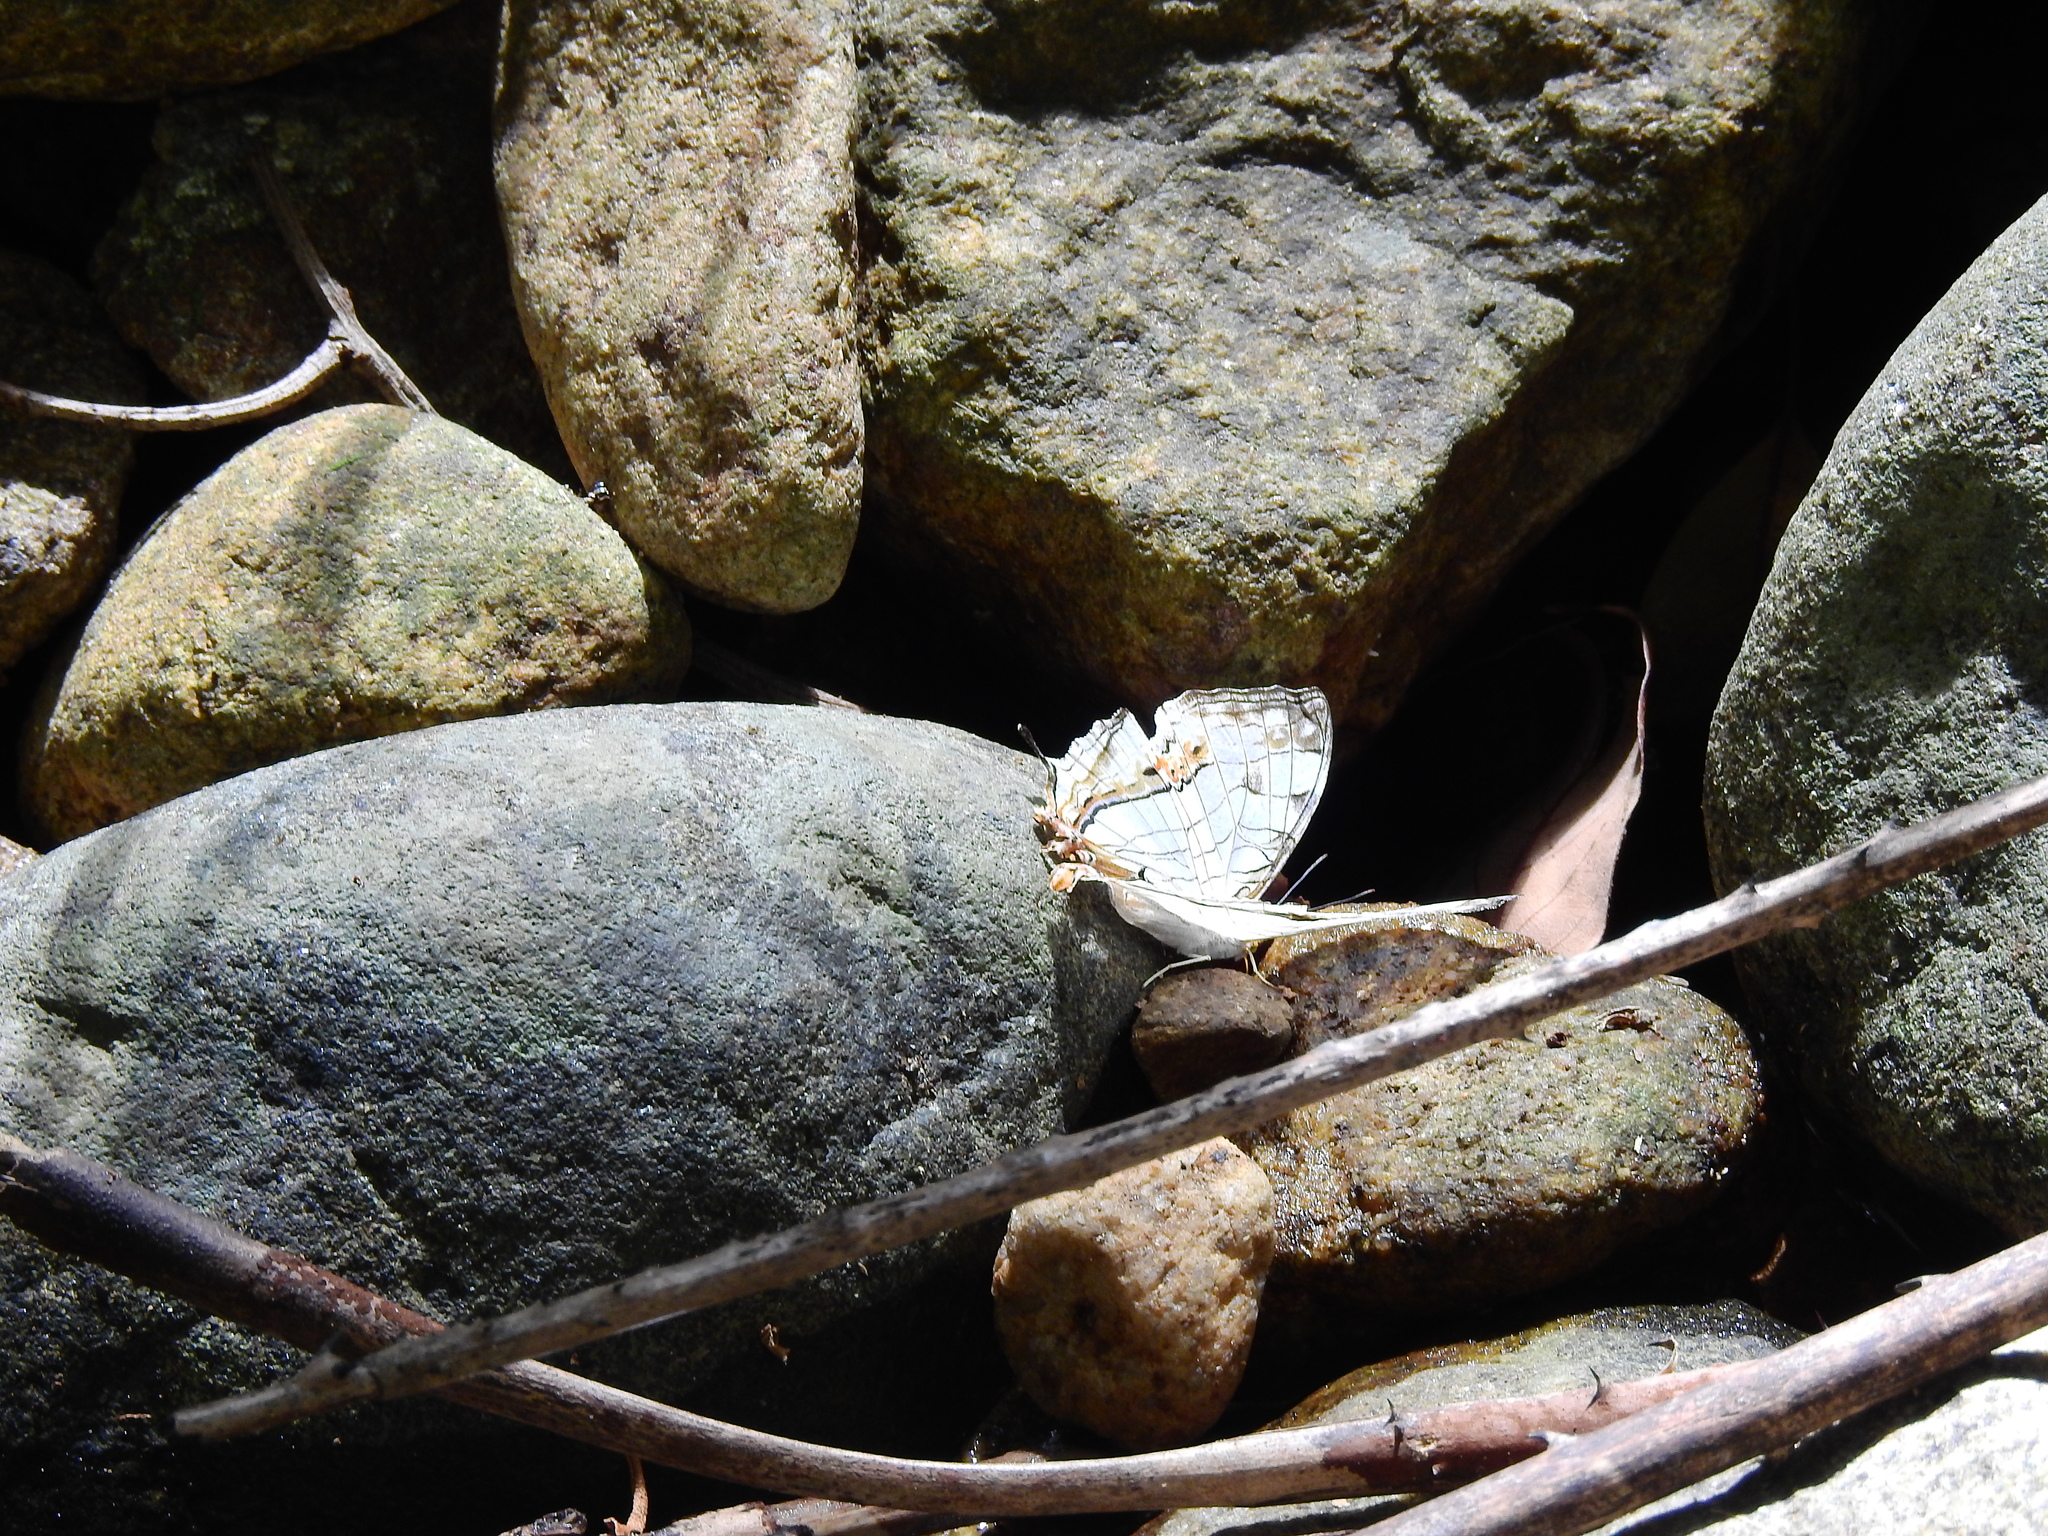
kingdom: Animalia
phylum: Arthropoda
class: Insecta
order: Lepidoptera
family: Nymphalidae
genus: Cyrestis
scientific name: Cyrestis thyodamas
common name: Common mapwing
